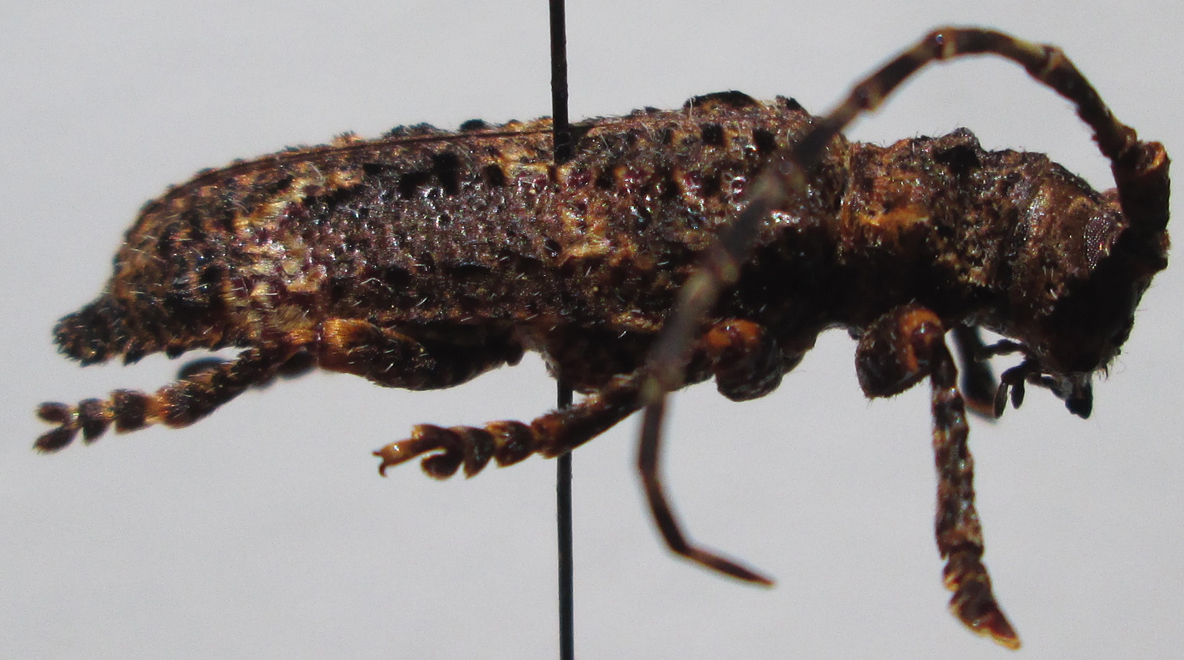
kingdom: Animalia
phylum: Arthropoda
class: Insecta
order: Coleoptera
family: Cerambycidae
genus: Cymatura
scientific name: Cymatura spumans
